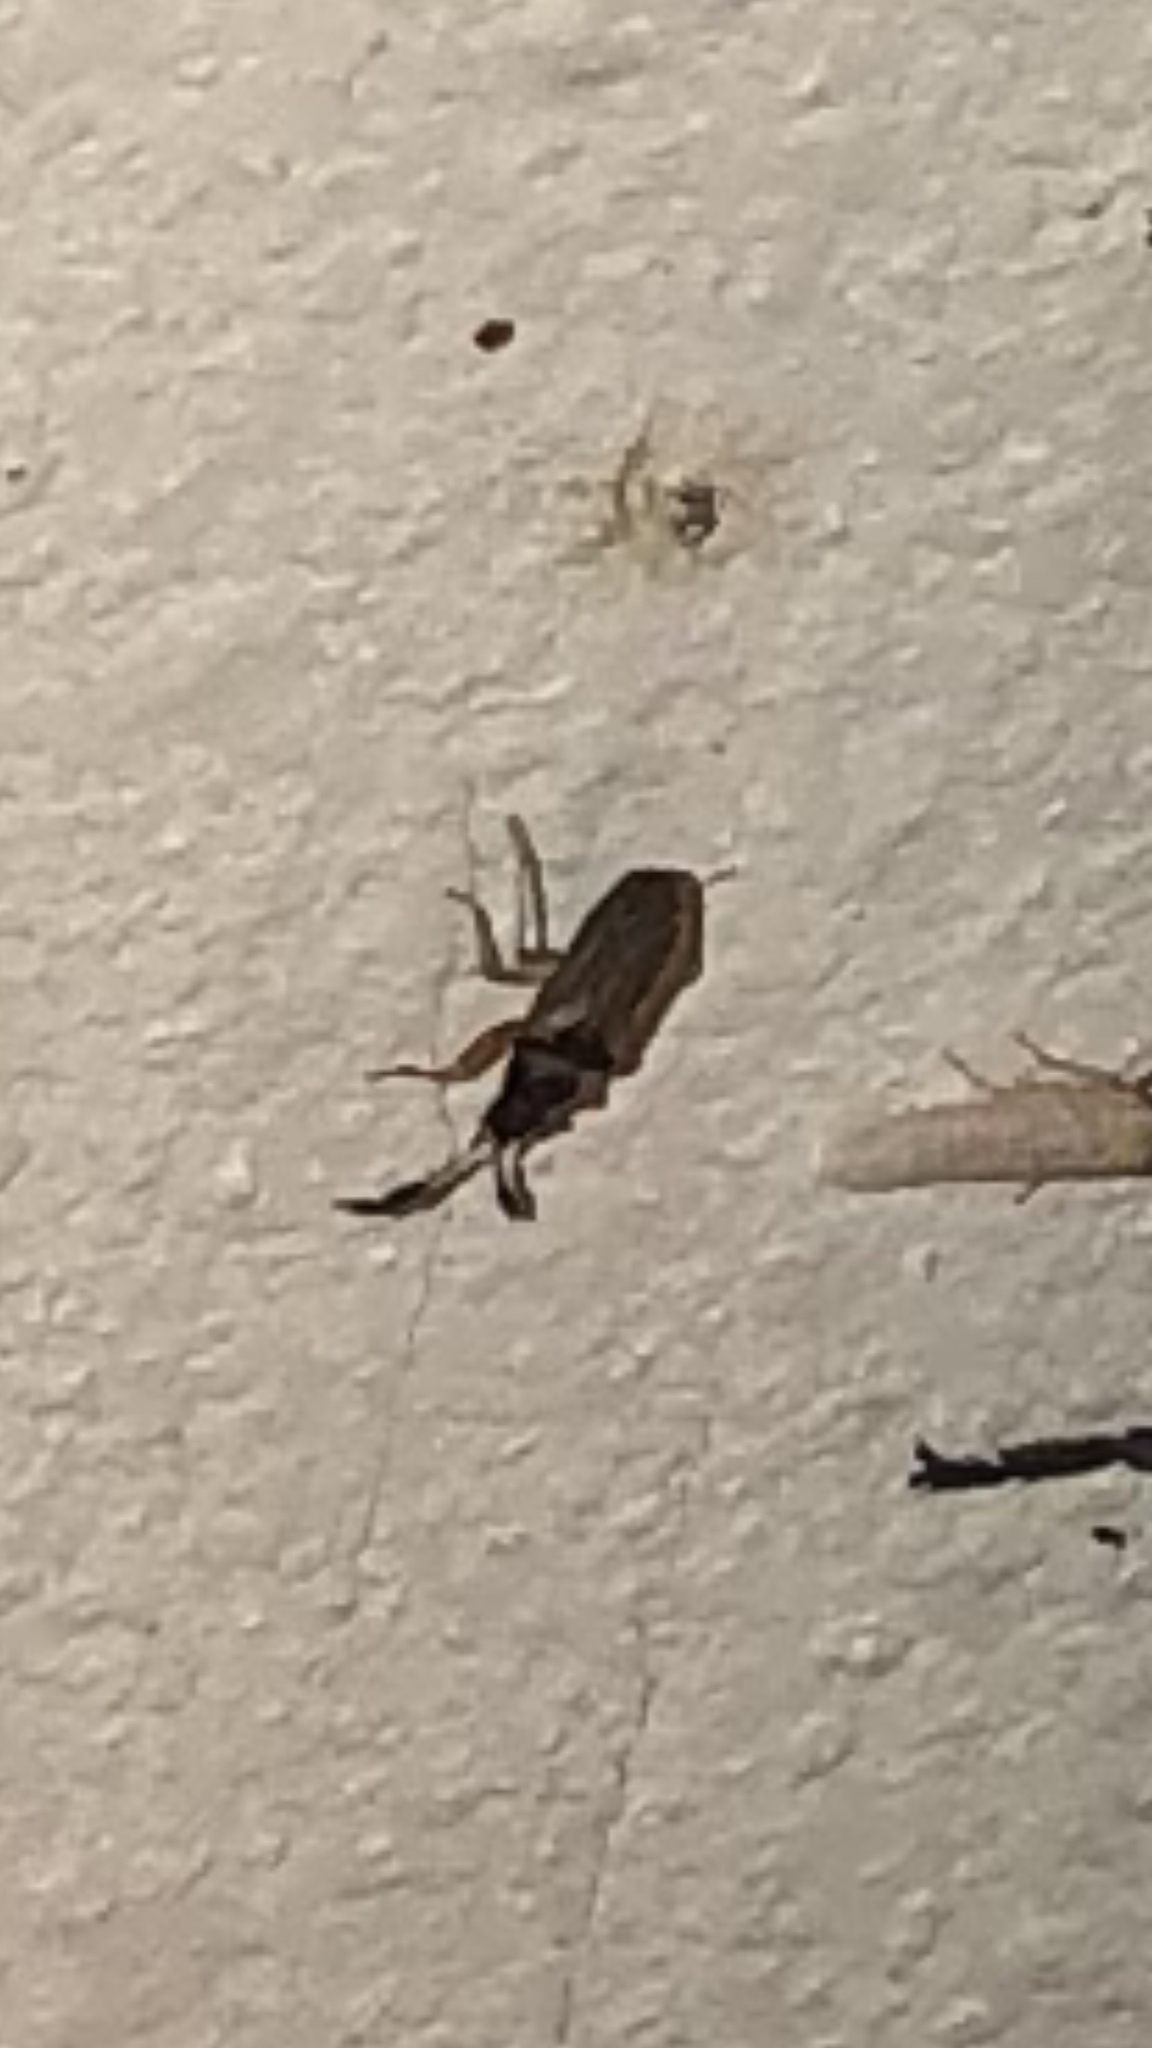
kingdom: Animalia
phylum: Arthropoda
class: Insecta
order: Hemiptera
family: Rhyparochromidae
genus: Ptochiomera
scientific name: Ptochiomera nodosa
